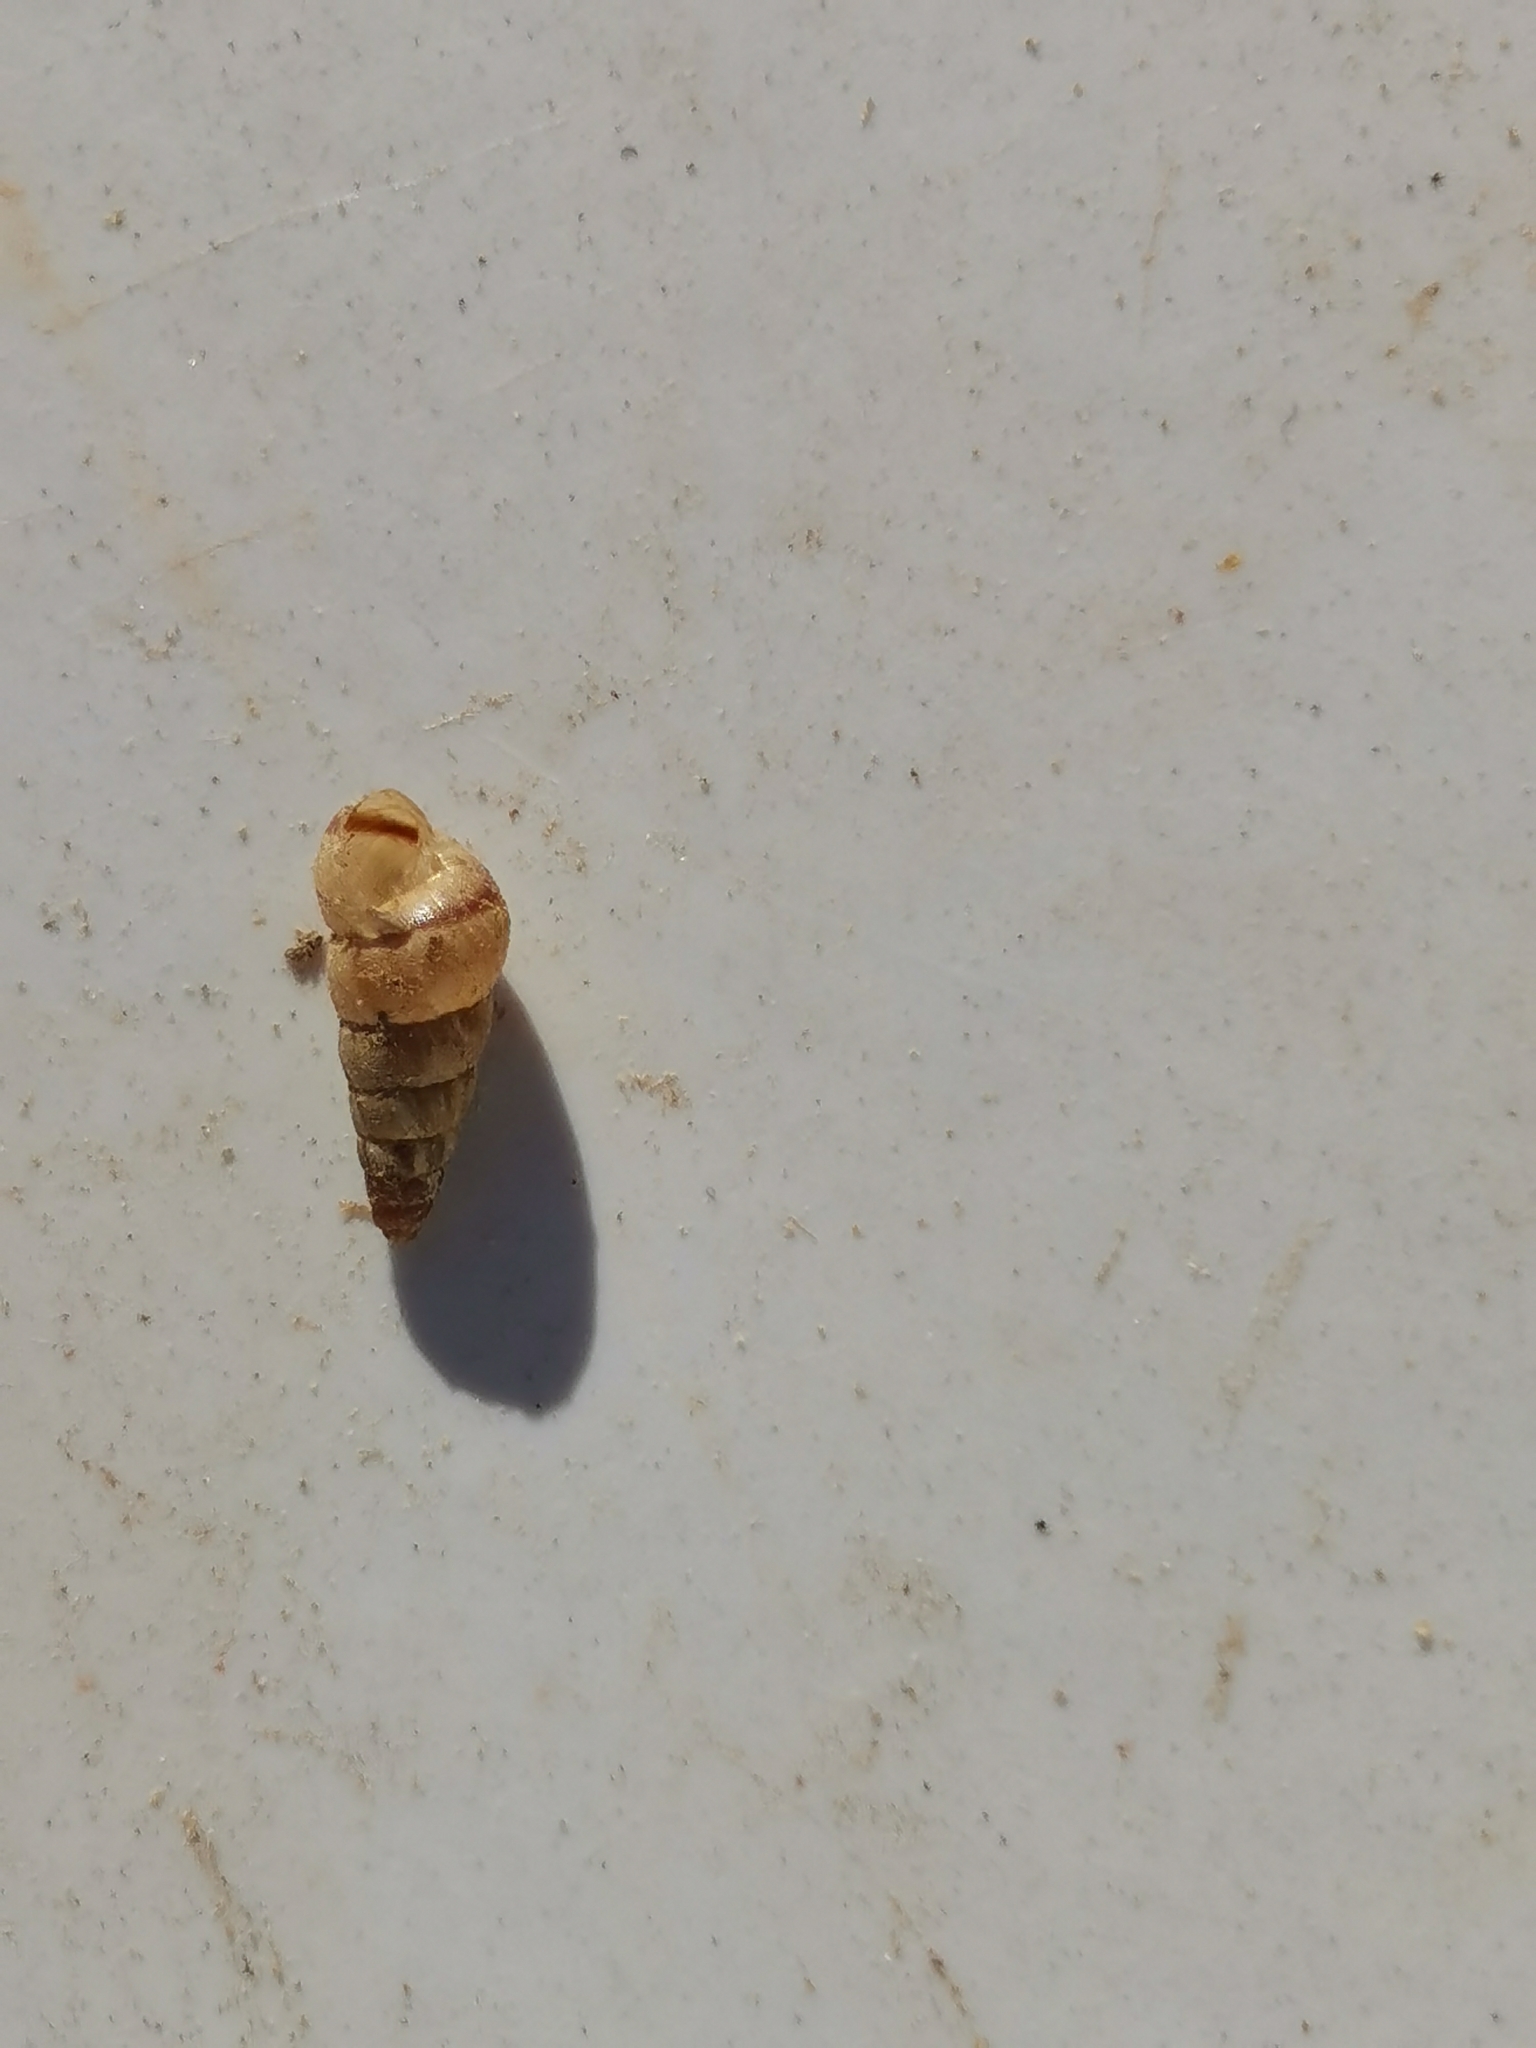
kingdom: Animalia
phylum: Mollusca
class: Gastropoda
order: Stylommatophora
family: Geomitridae
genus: Cochlicella
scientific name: Cochlicella acuta
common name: Pointed snail
